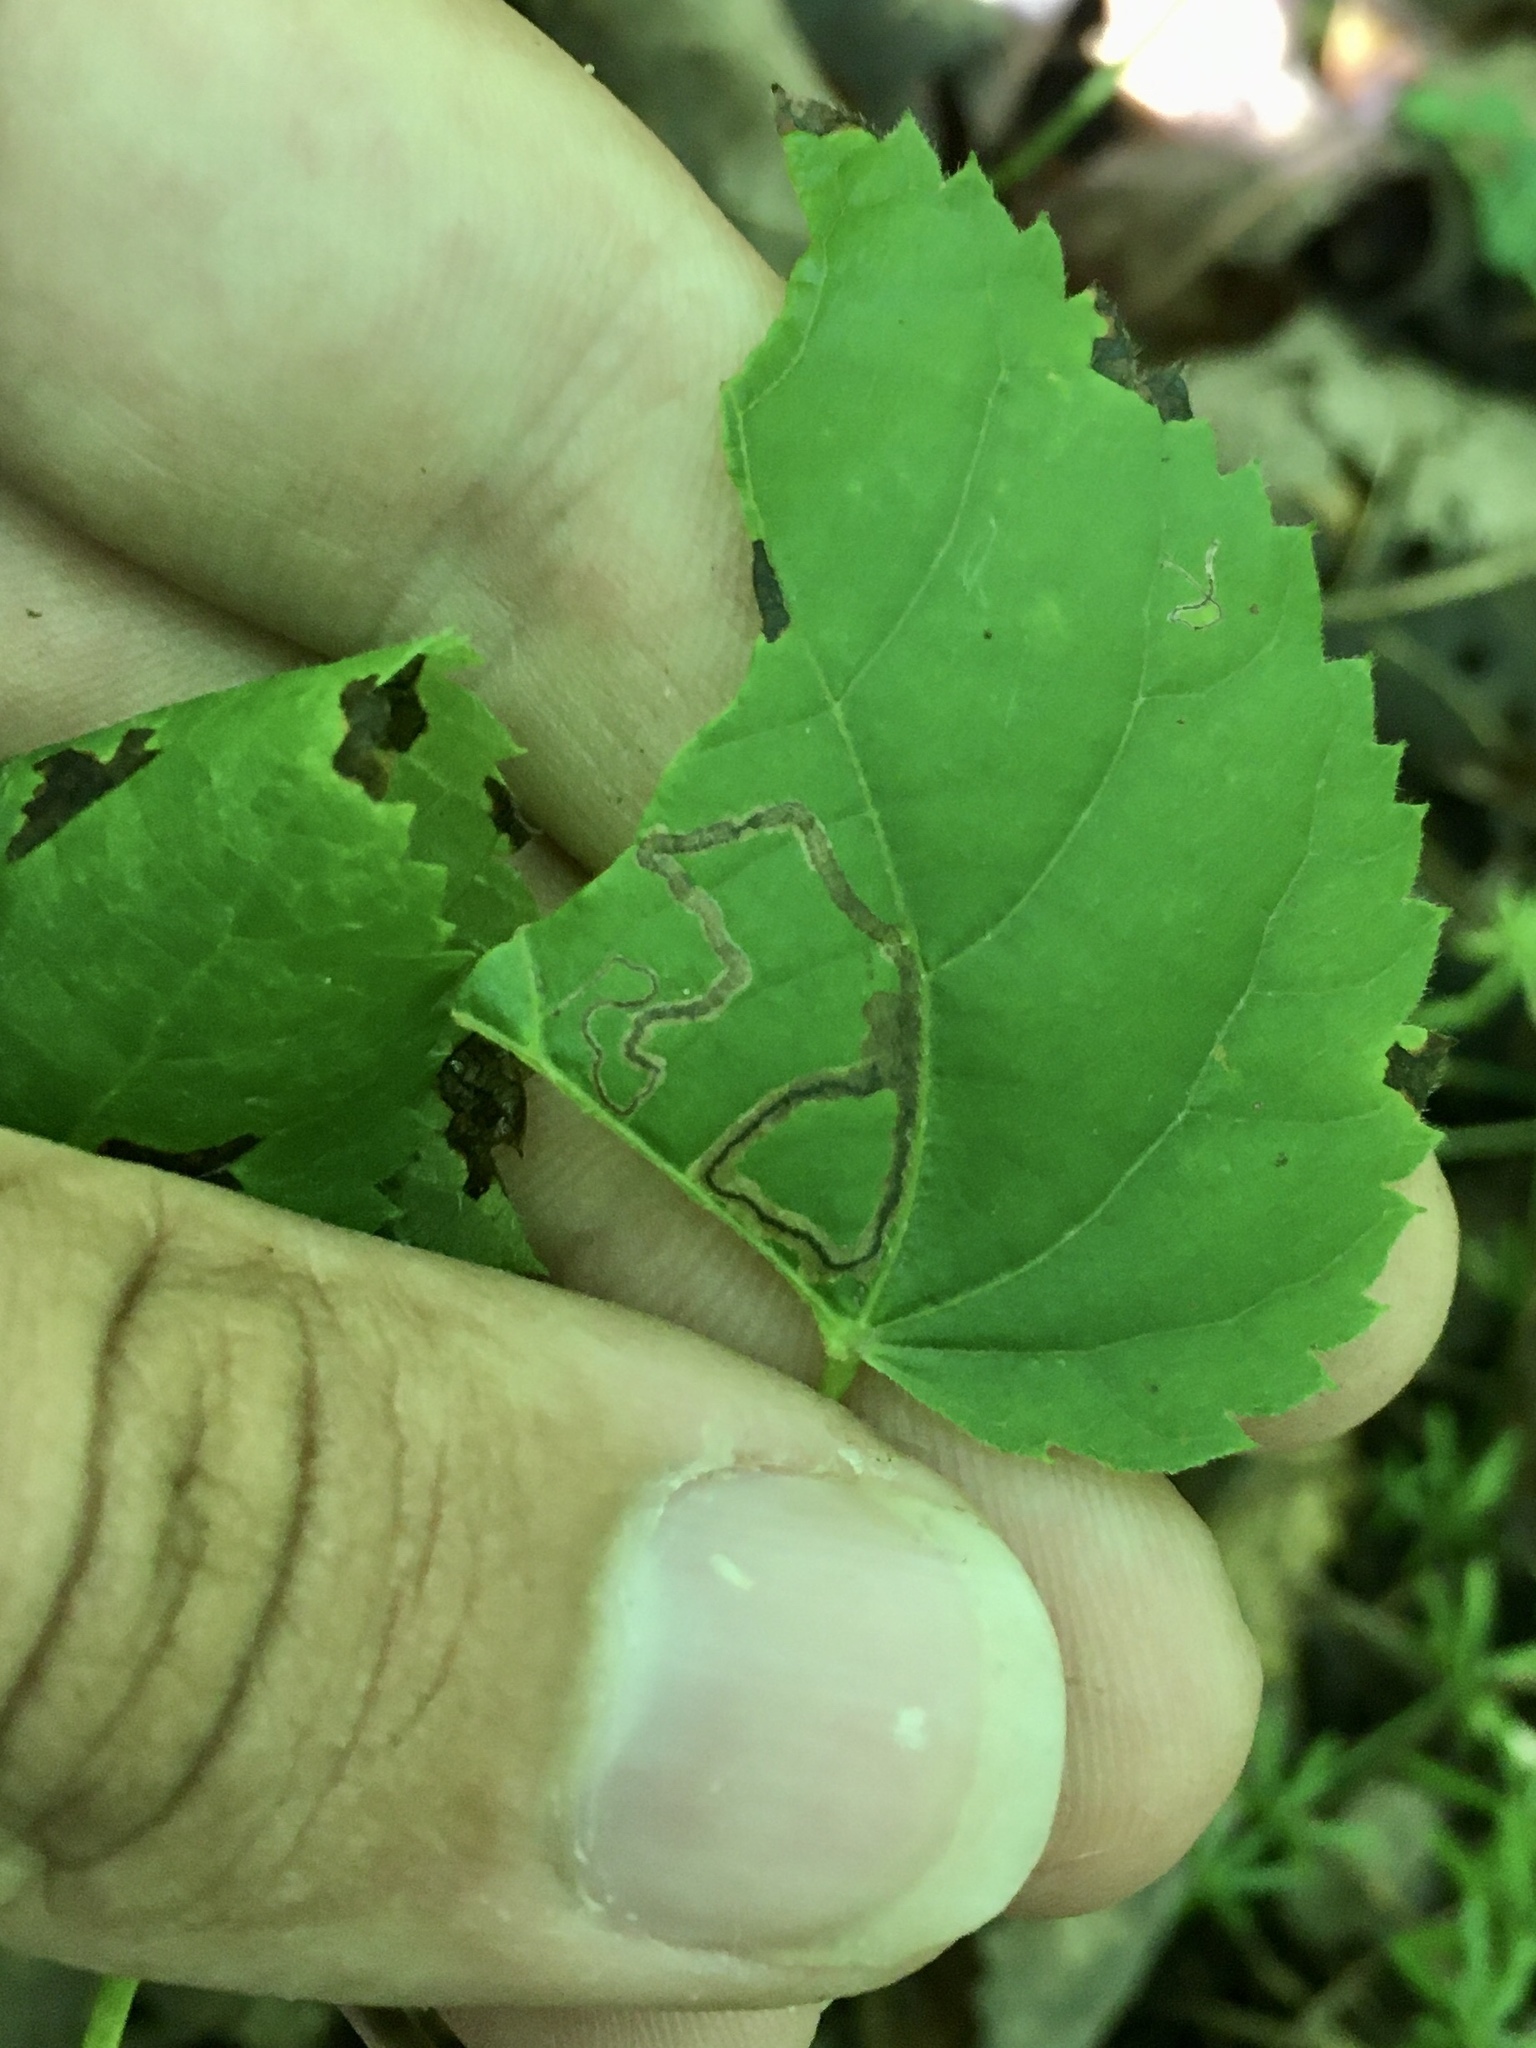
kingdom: Animalia
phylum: Arthropoda
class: Insecta
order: Lepidoptera
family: Nepticulidae
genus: Stigmella
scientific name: Stigmella tiliella
